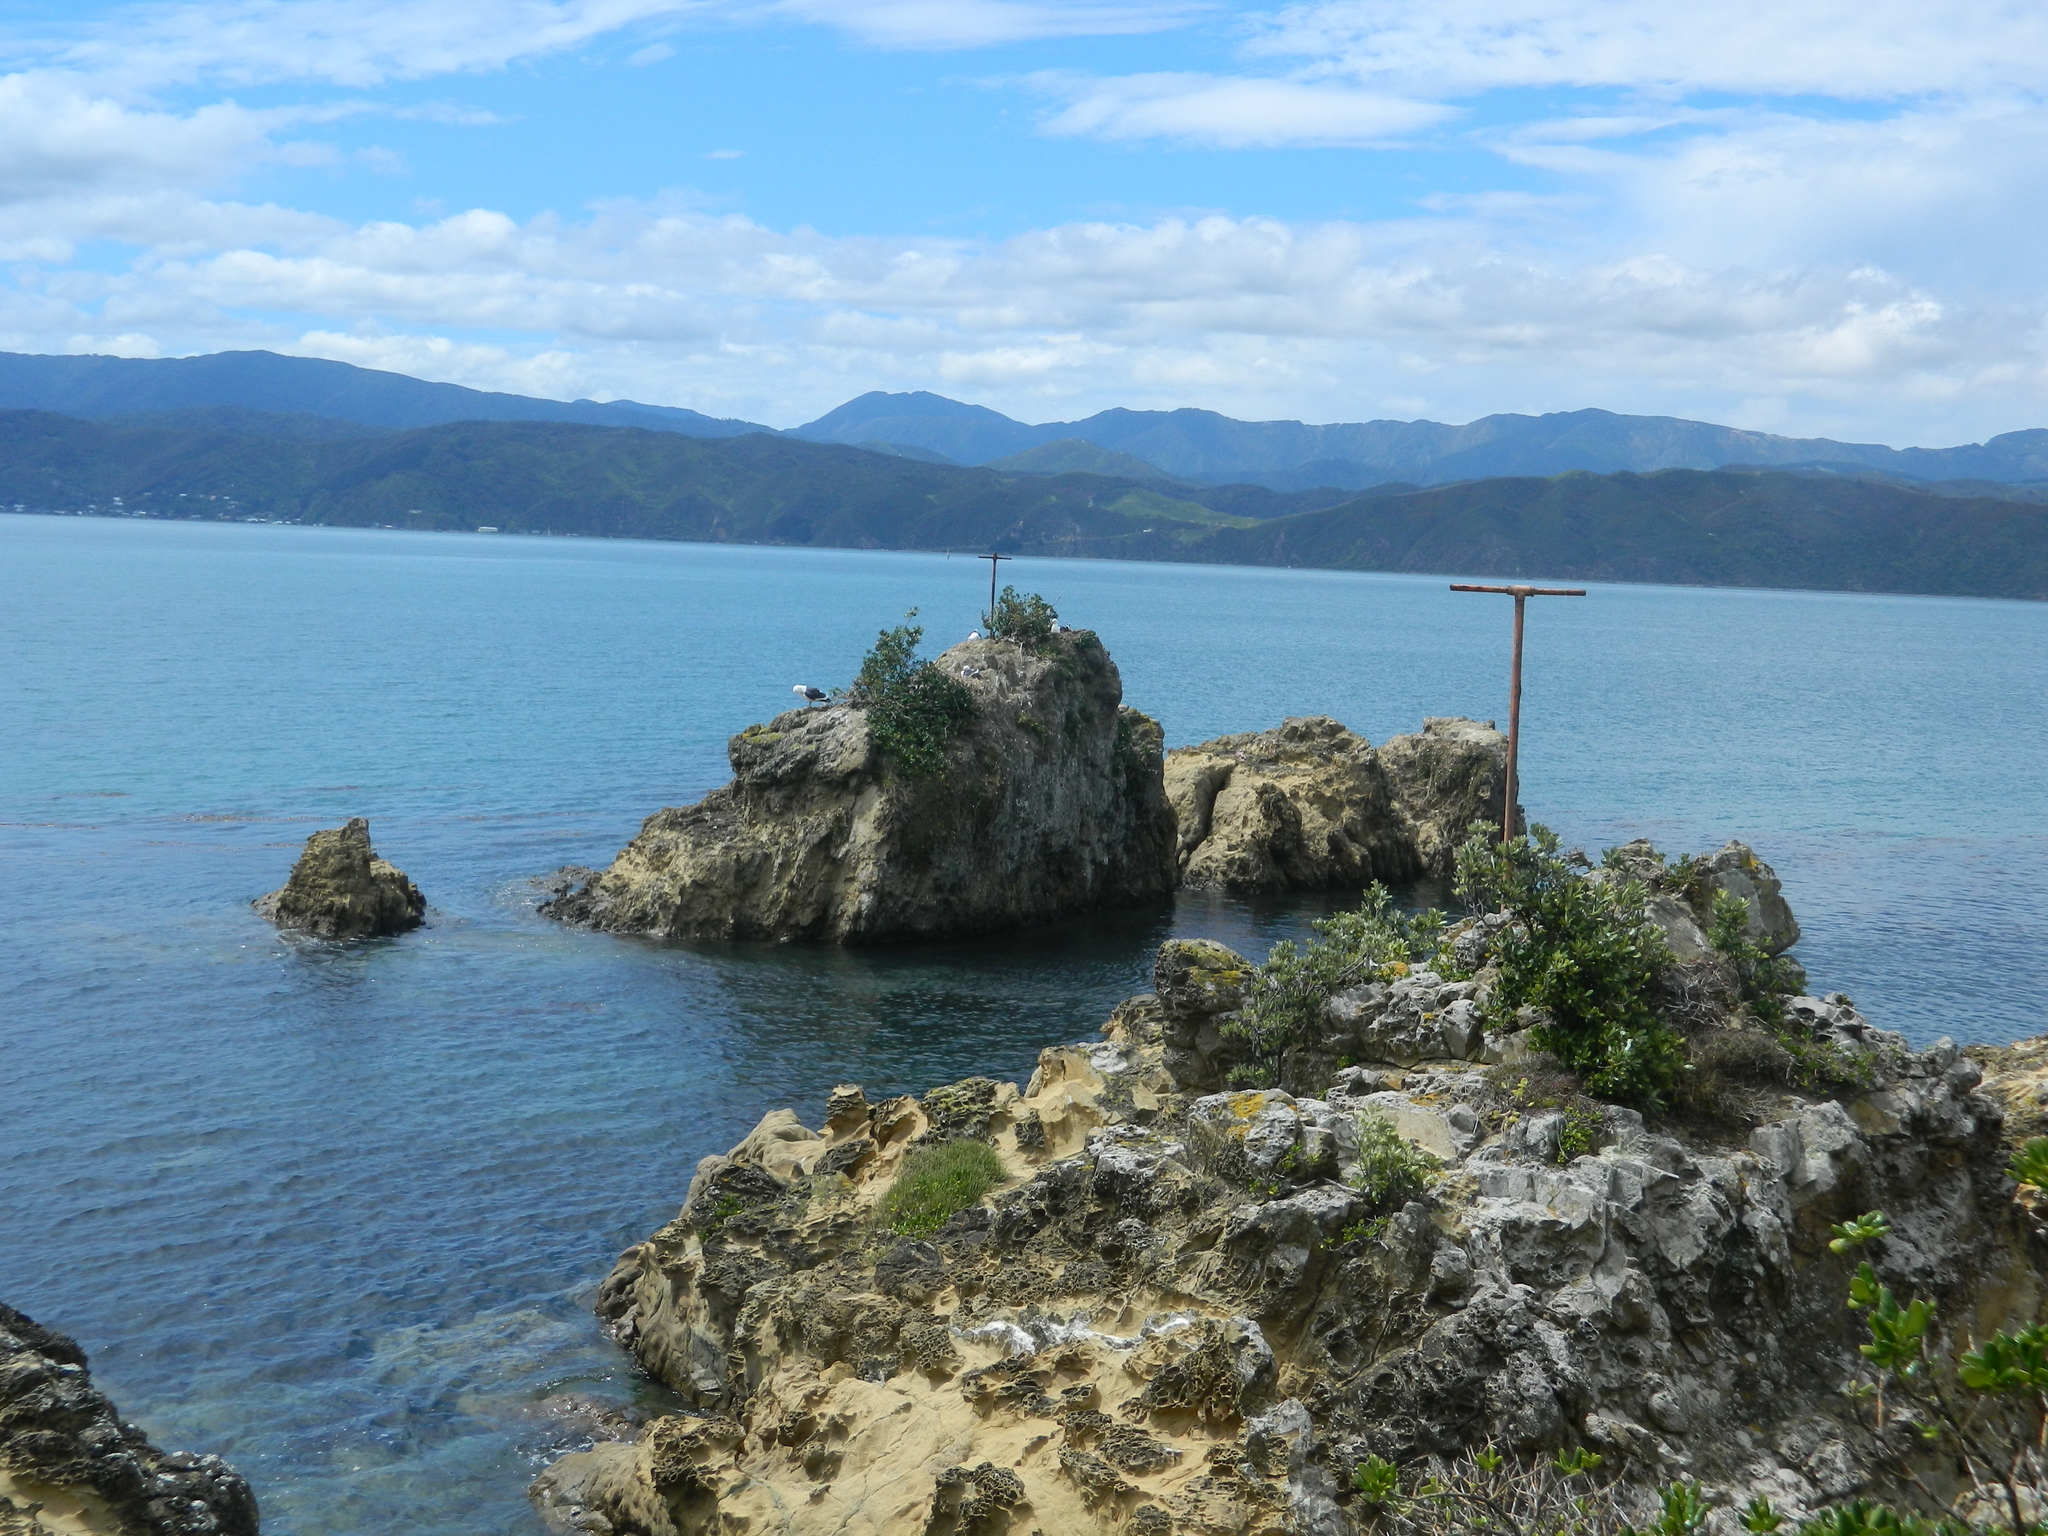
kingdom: Animalia
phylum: Chordata
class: Aves
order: Charadriiformes
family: Laridae
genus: Larus
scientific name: Larus dominicanus
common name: Kelp gull
